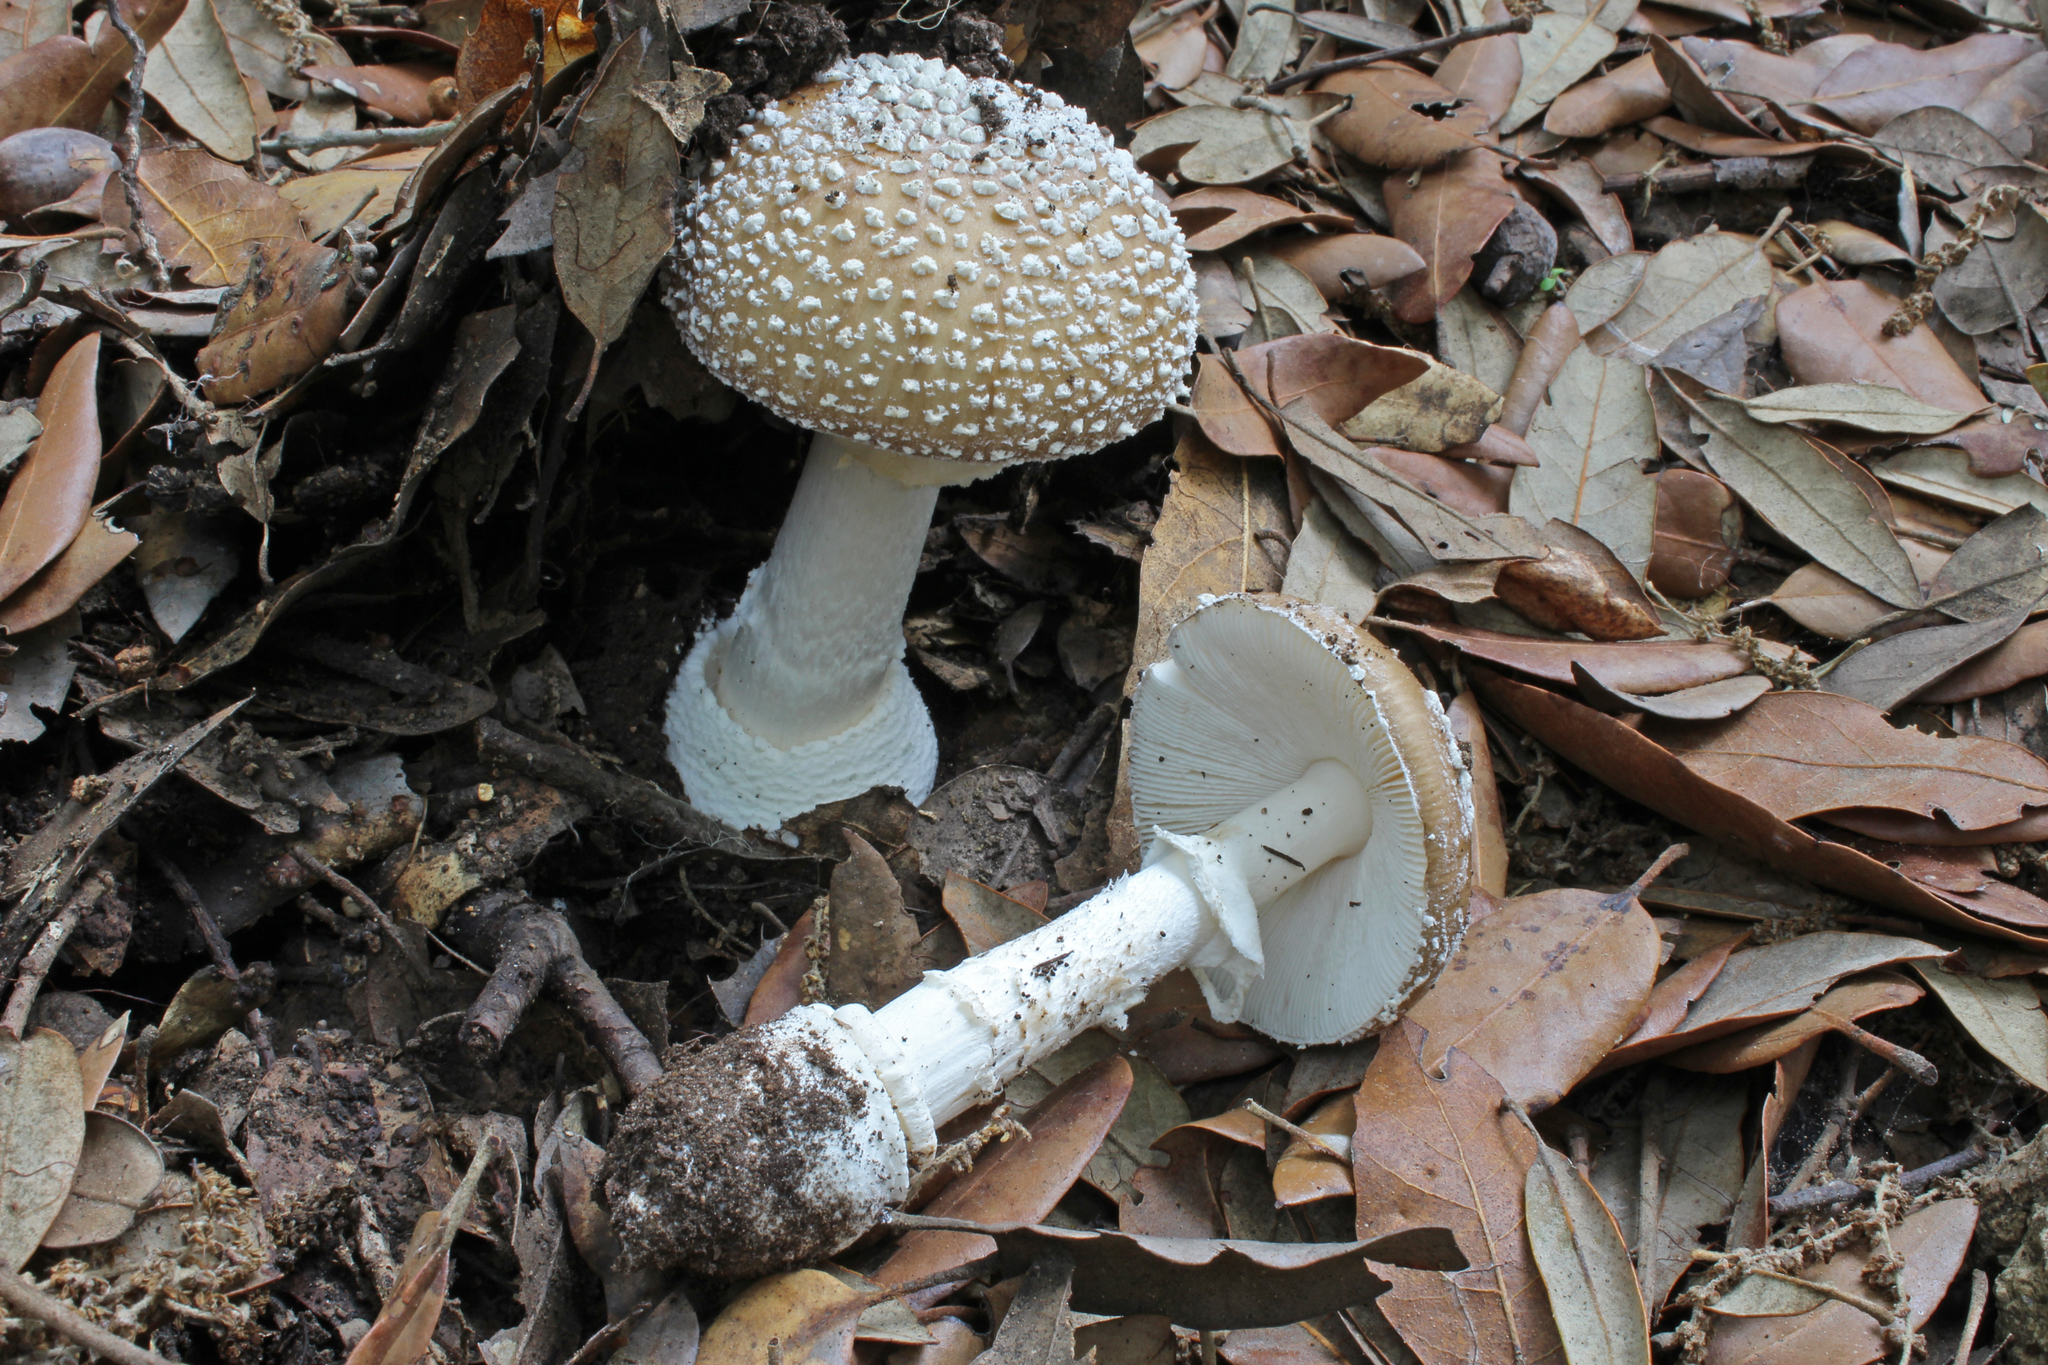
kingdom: Fungi
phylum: Basidiomycota
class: Agaricomycetes
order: Agaricales
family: Amanitaceae
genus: Amanita
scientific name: Amanita pantherina
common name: Panthercap
